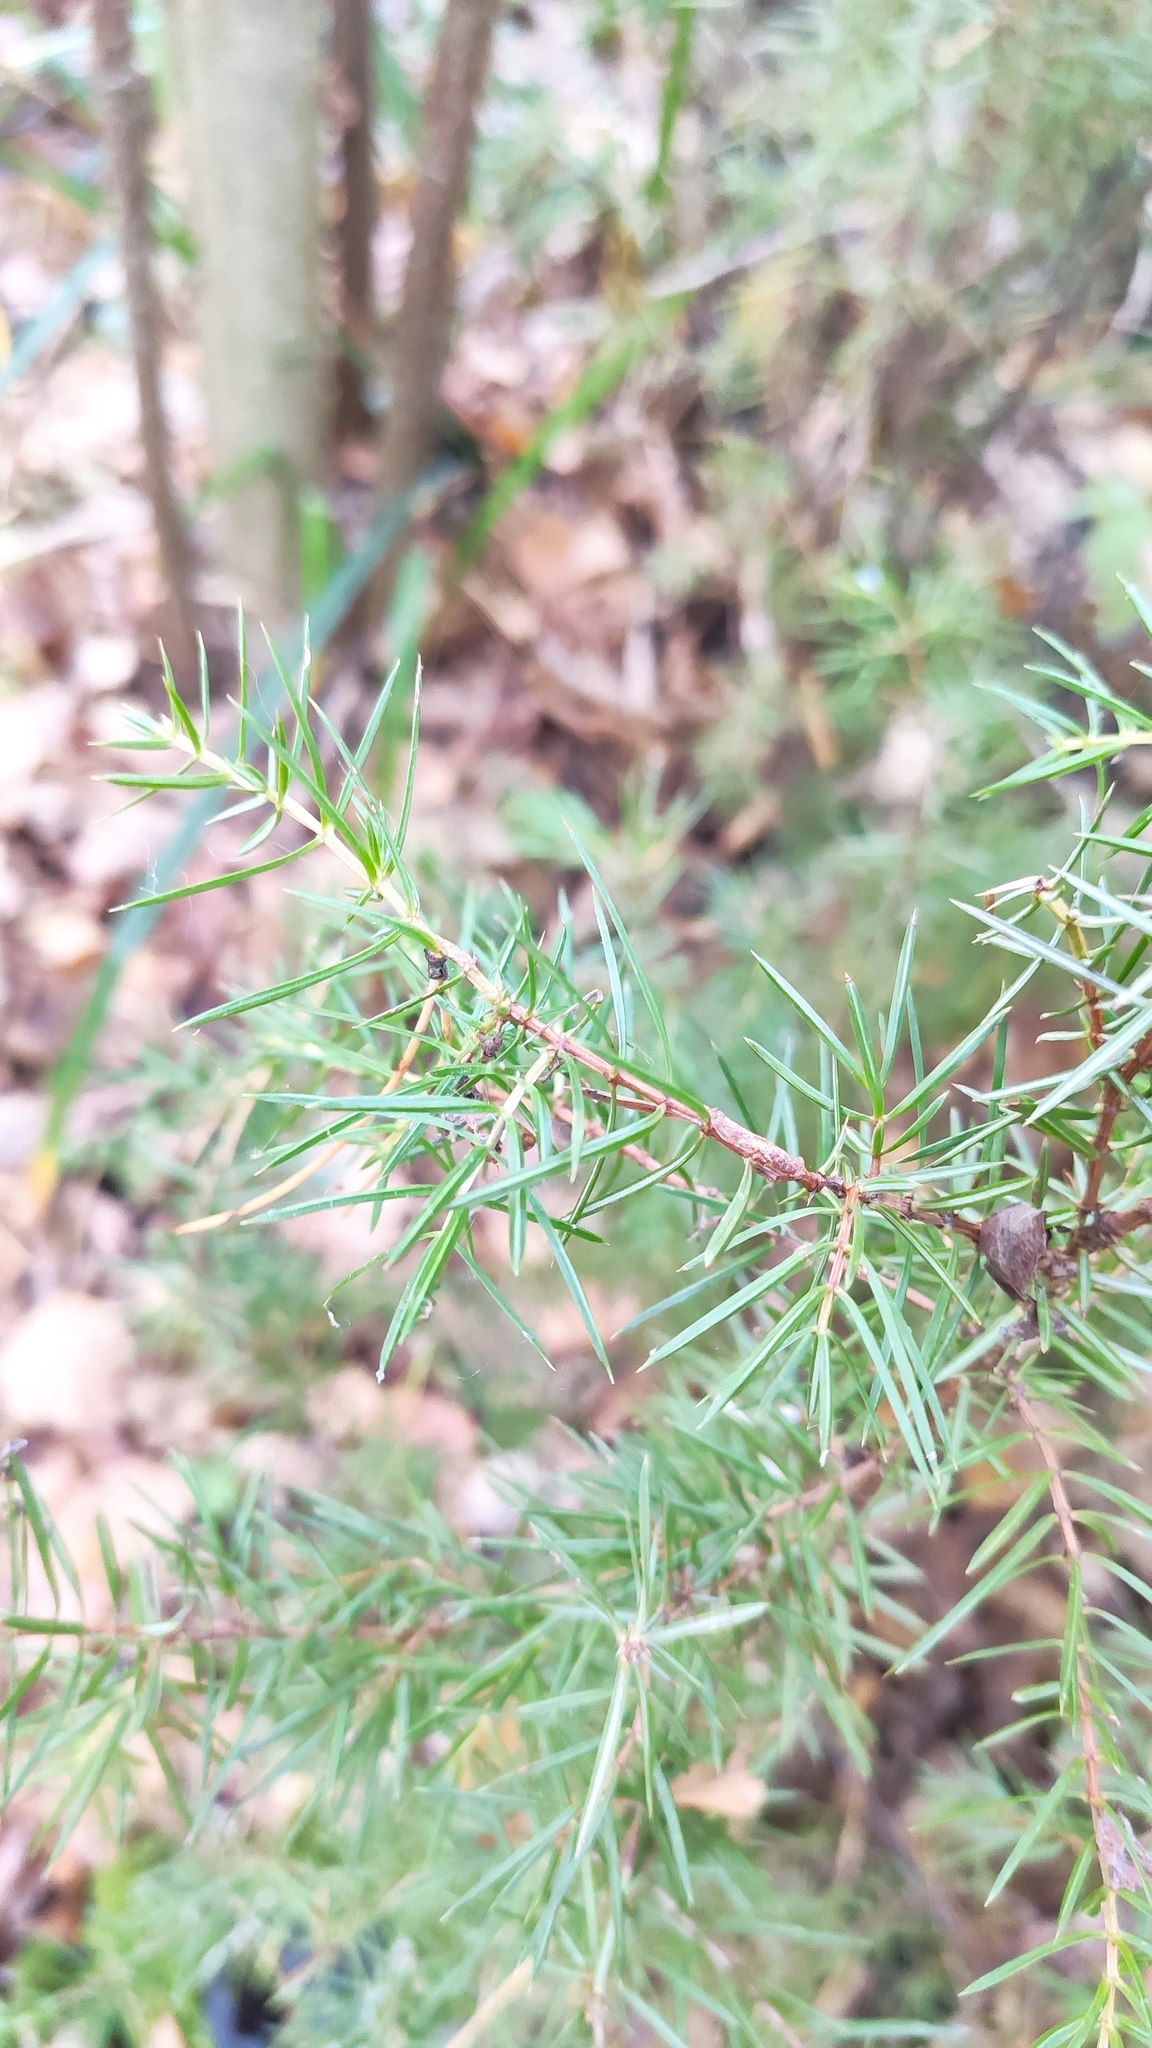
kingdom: Plantae
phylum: Tracheophyta
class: Pinopsida
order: Pinales
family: Cupressaceae
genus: Juniperus
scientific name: Juniperus communis
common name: Common juniper
